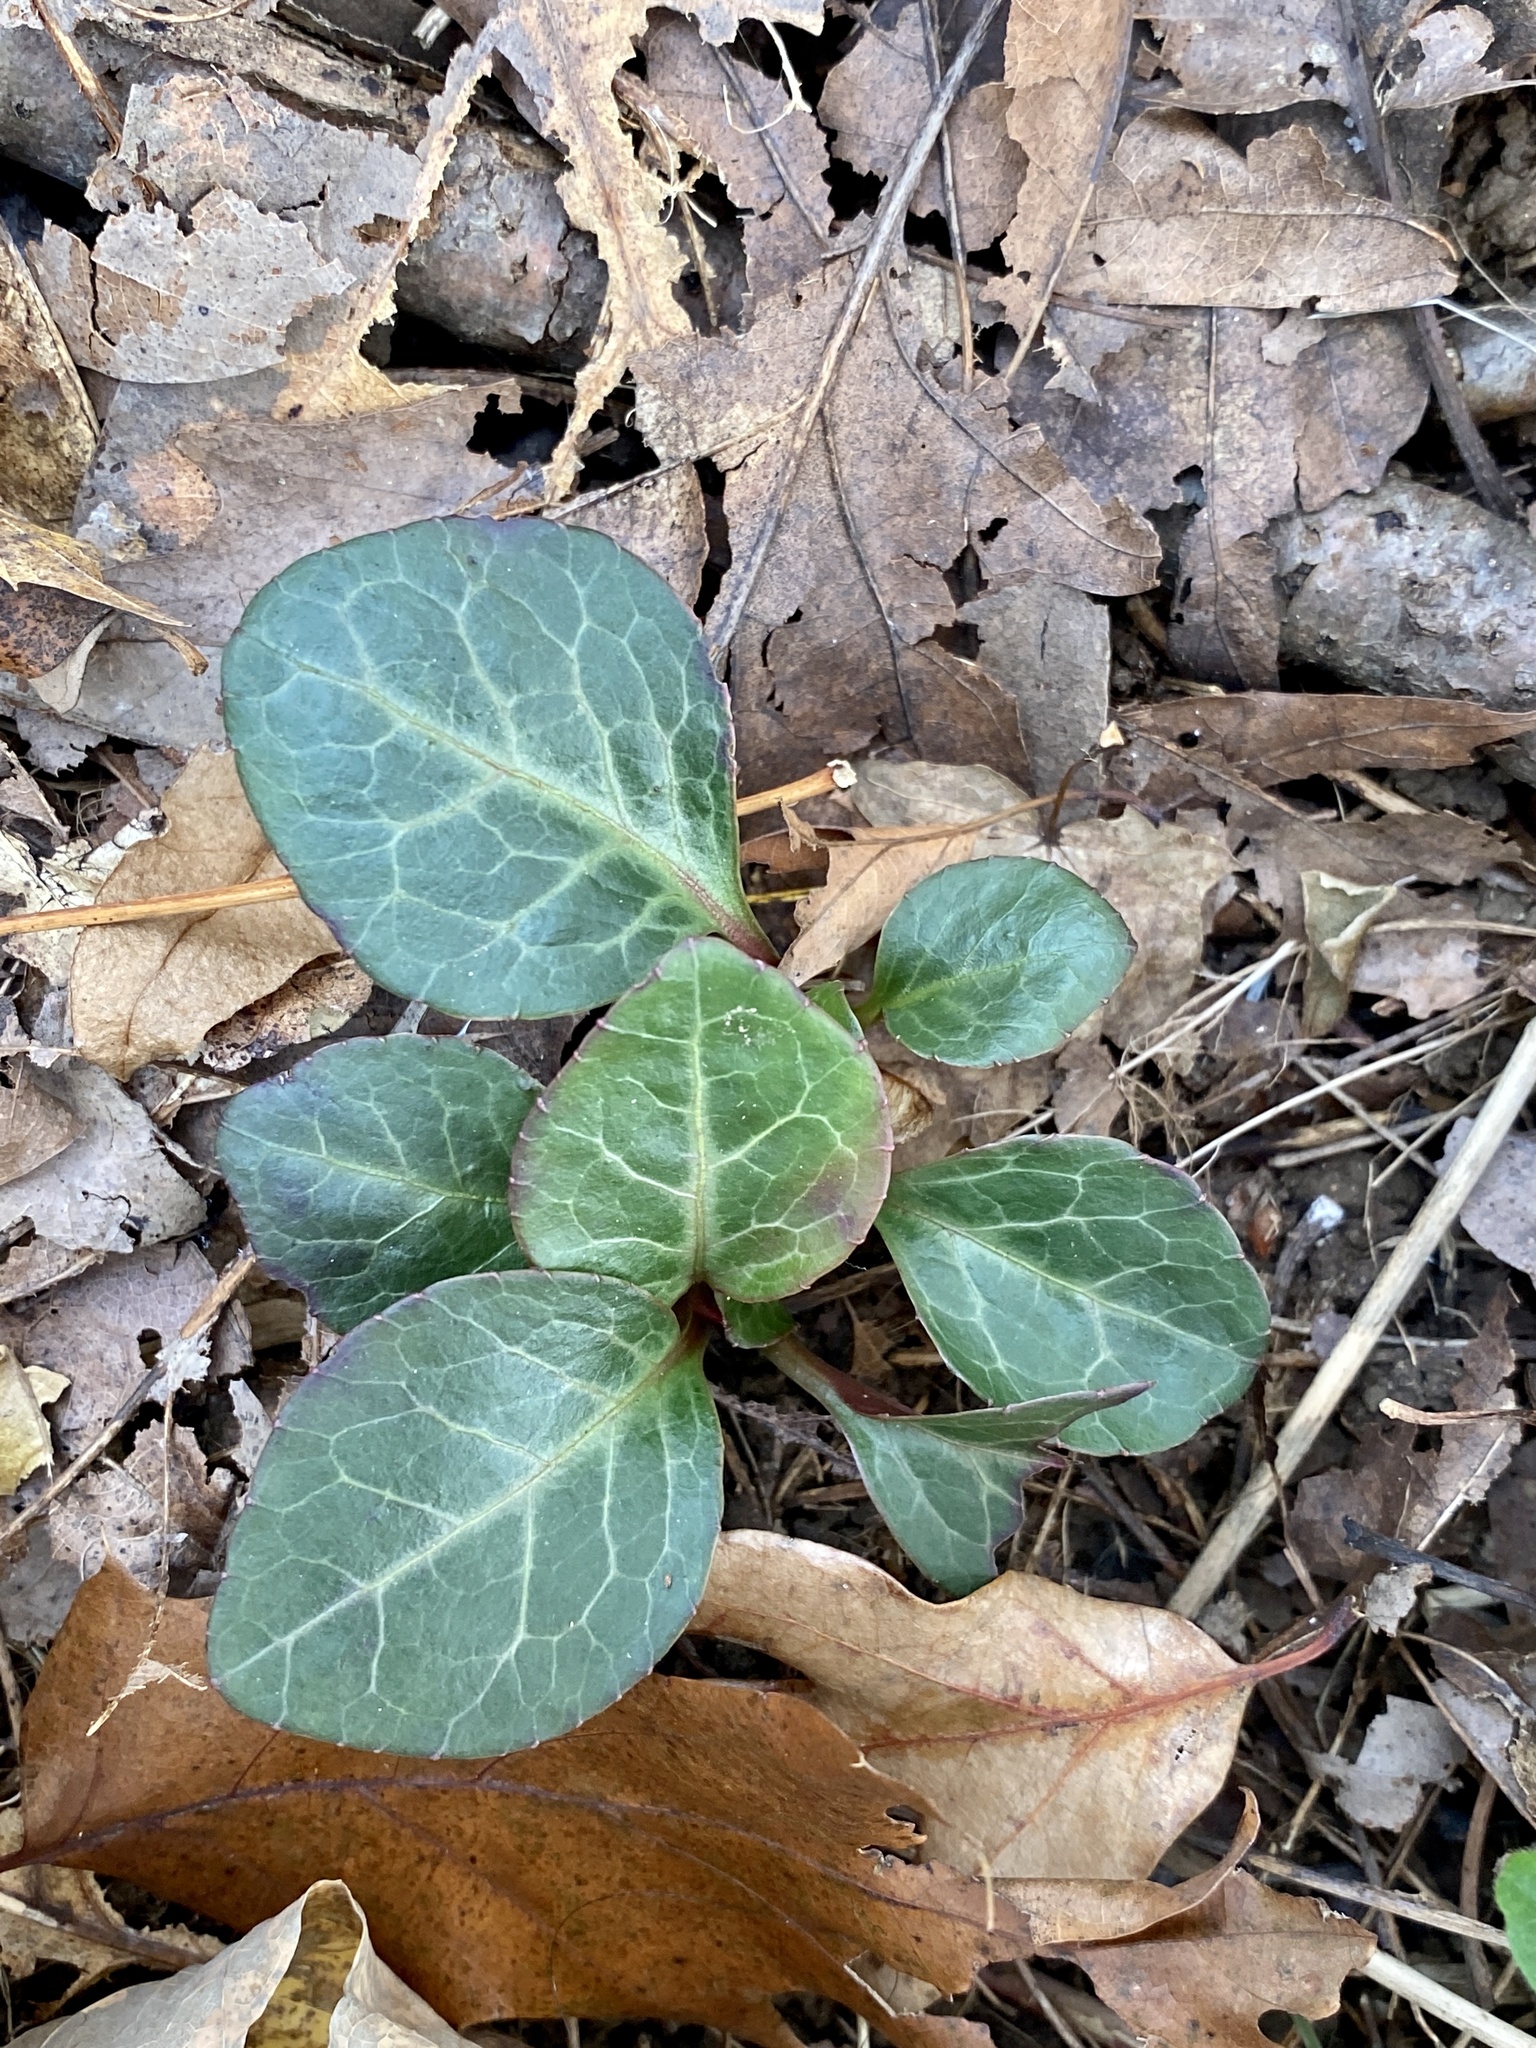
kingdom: Plantae
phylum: Tracheophyta
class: Magnoliopsida
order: Ericales
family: Ericaceae
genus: Pyrola
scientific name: Pyrola americana
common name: American wintergreen
